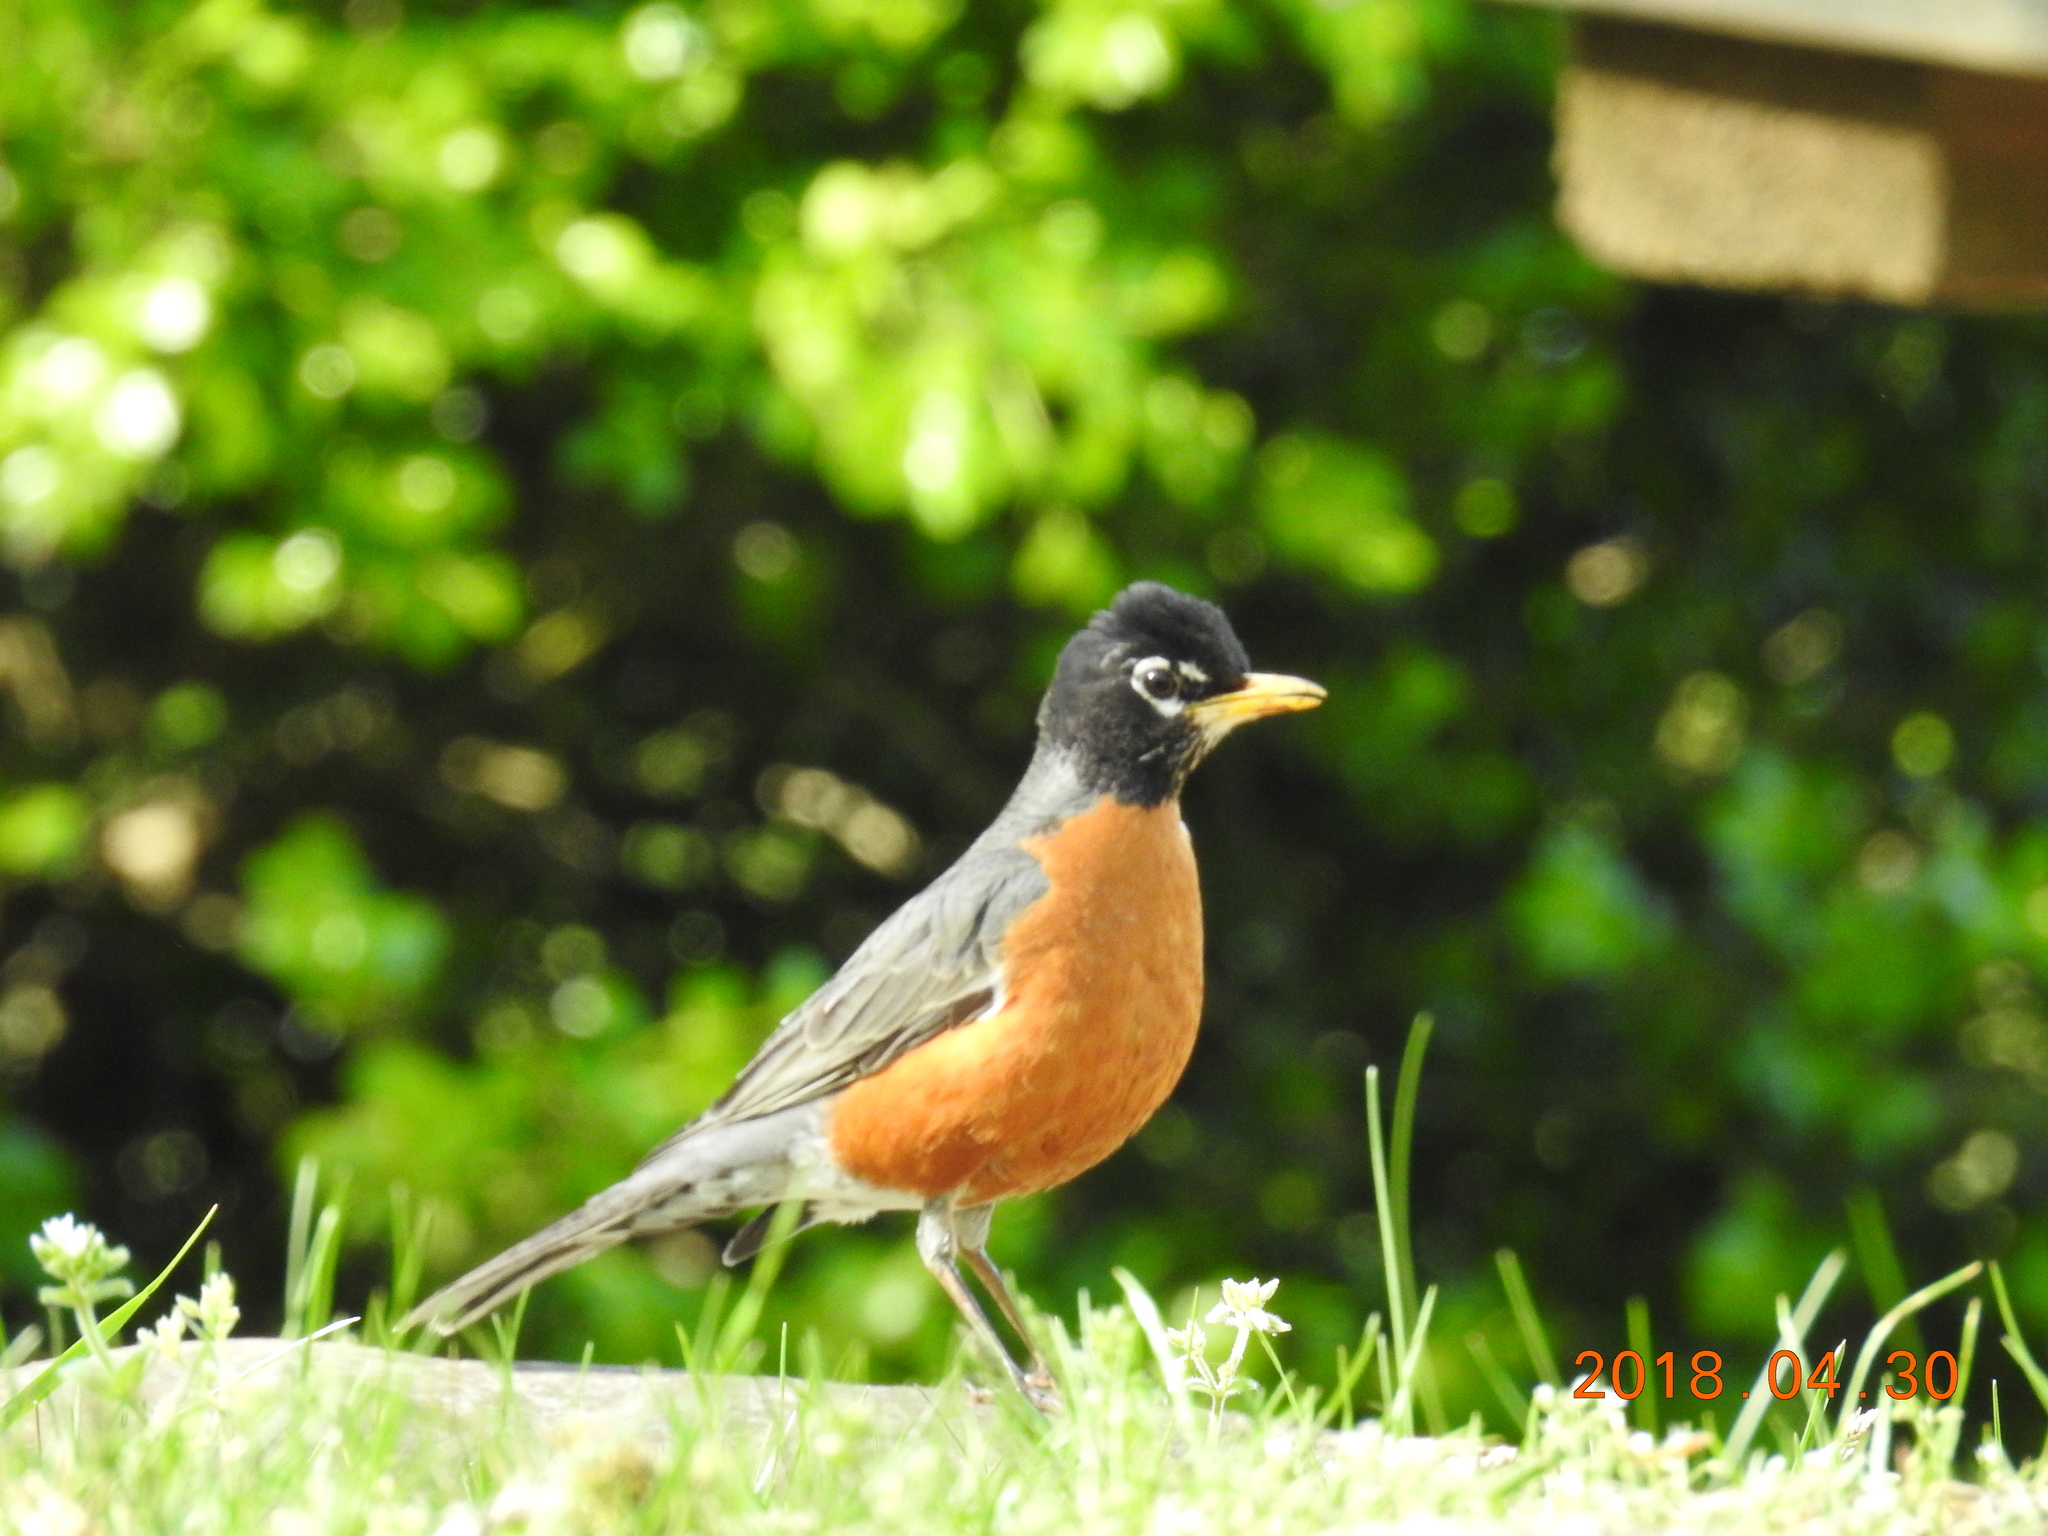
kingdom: Animalia
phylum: Chordata
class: Aves
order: Passeriformes
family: Turdidae
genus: Turdus
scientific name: Turdus migratorius
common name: American robin
